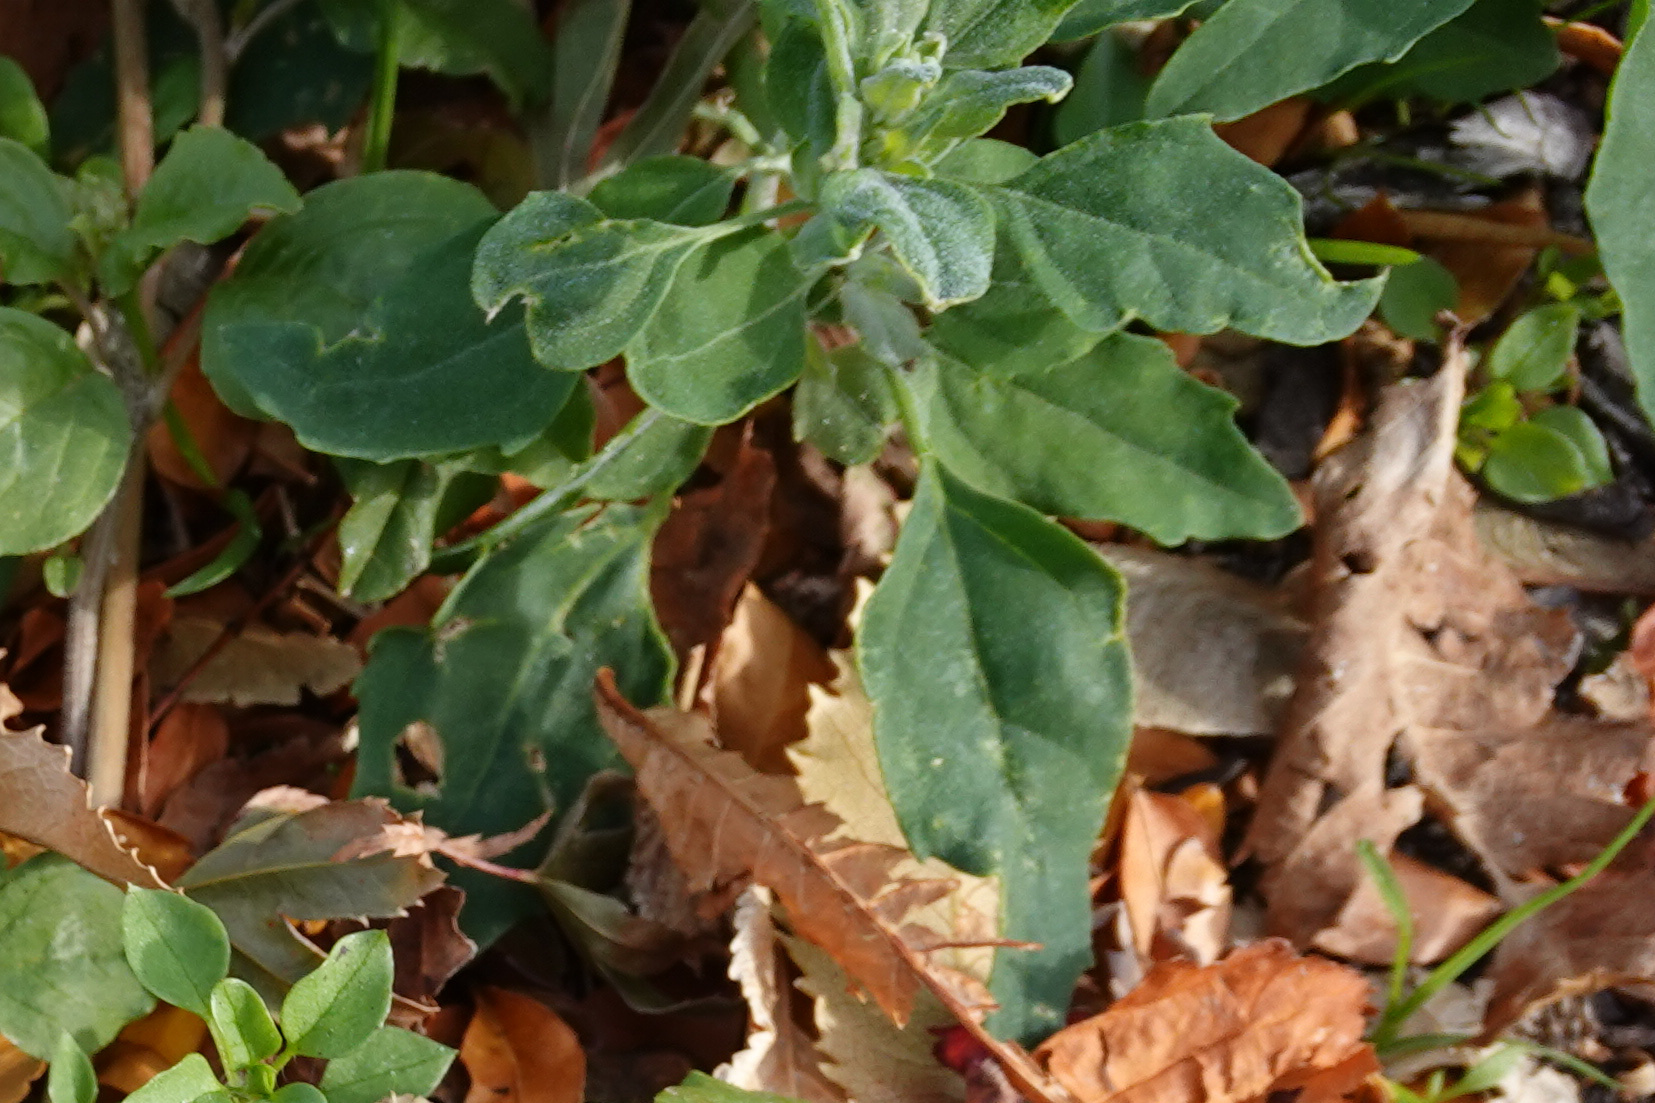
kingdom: Plantae
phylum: Tracheophyta
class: Magnoliopsida
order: Caryophyllales
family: Amaranthaceae
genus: Chenopodium
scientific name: Chenopodium album
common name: Fat-hen
